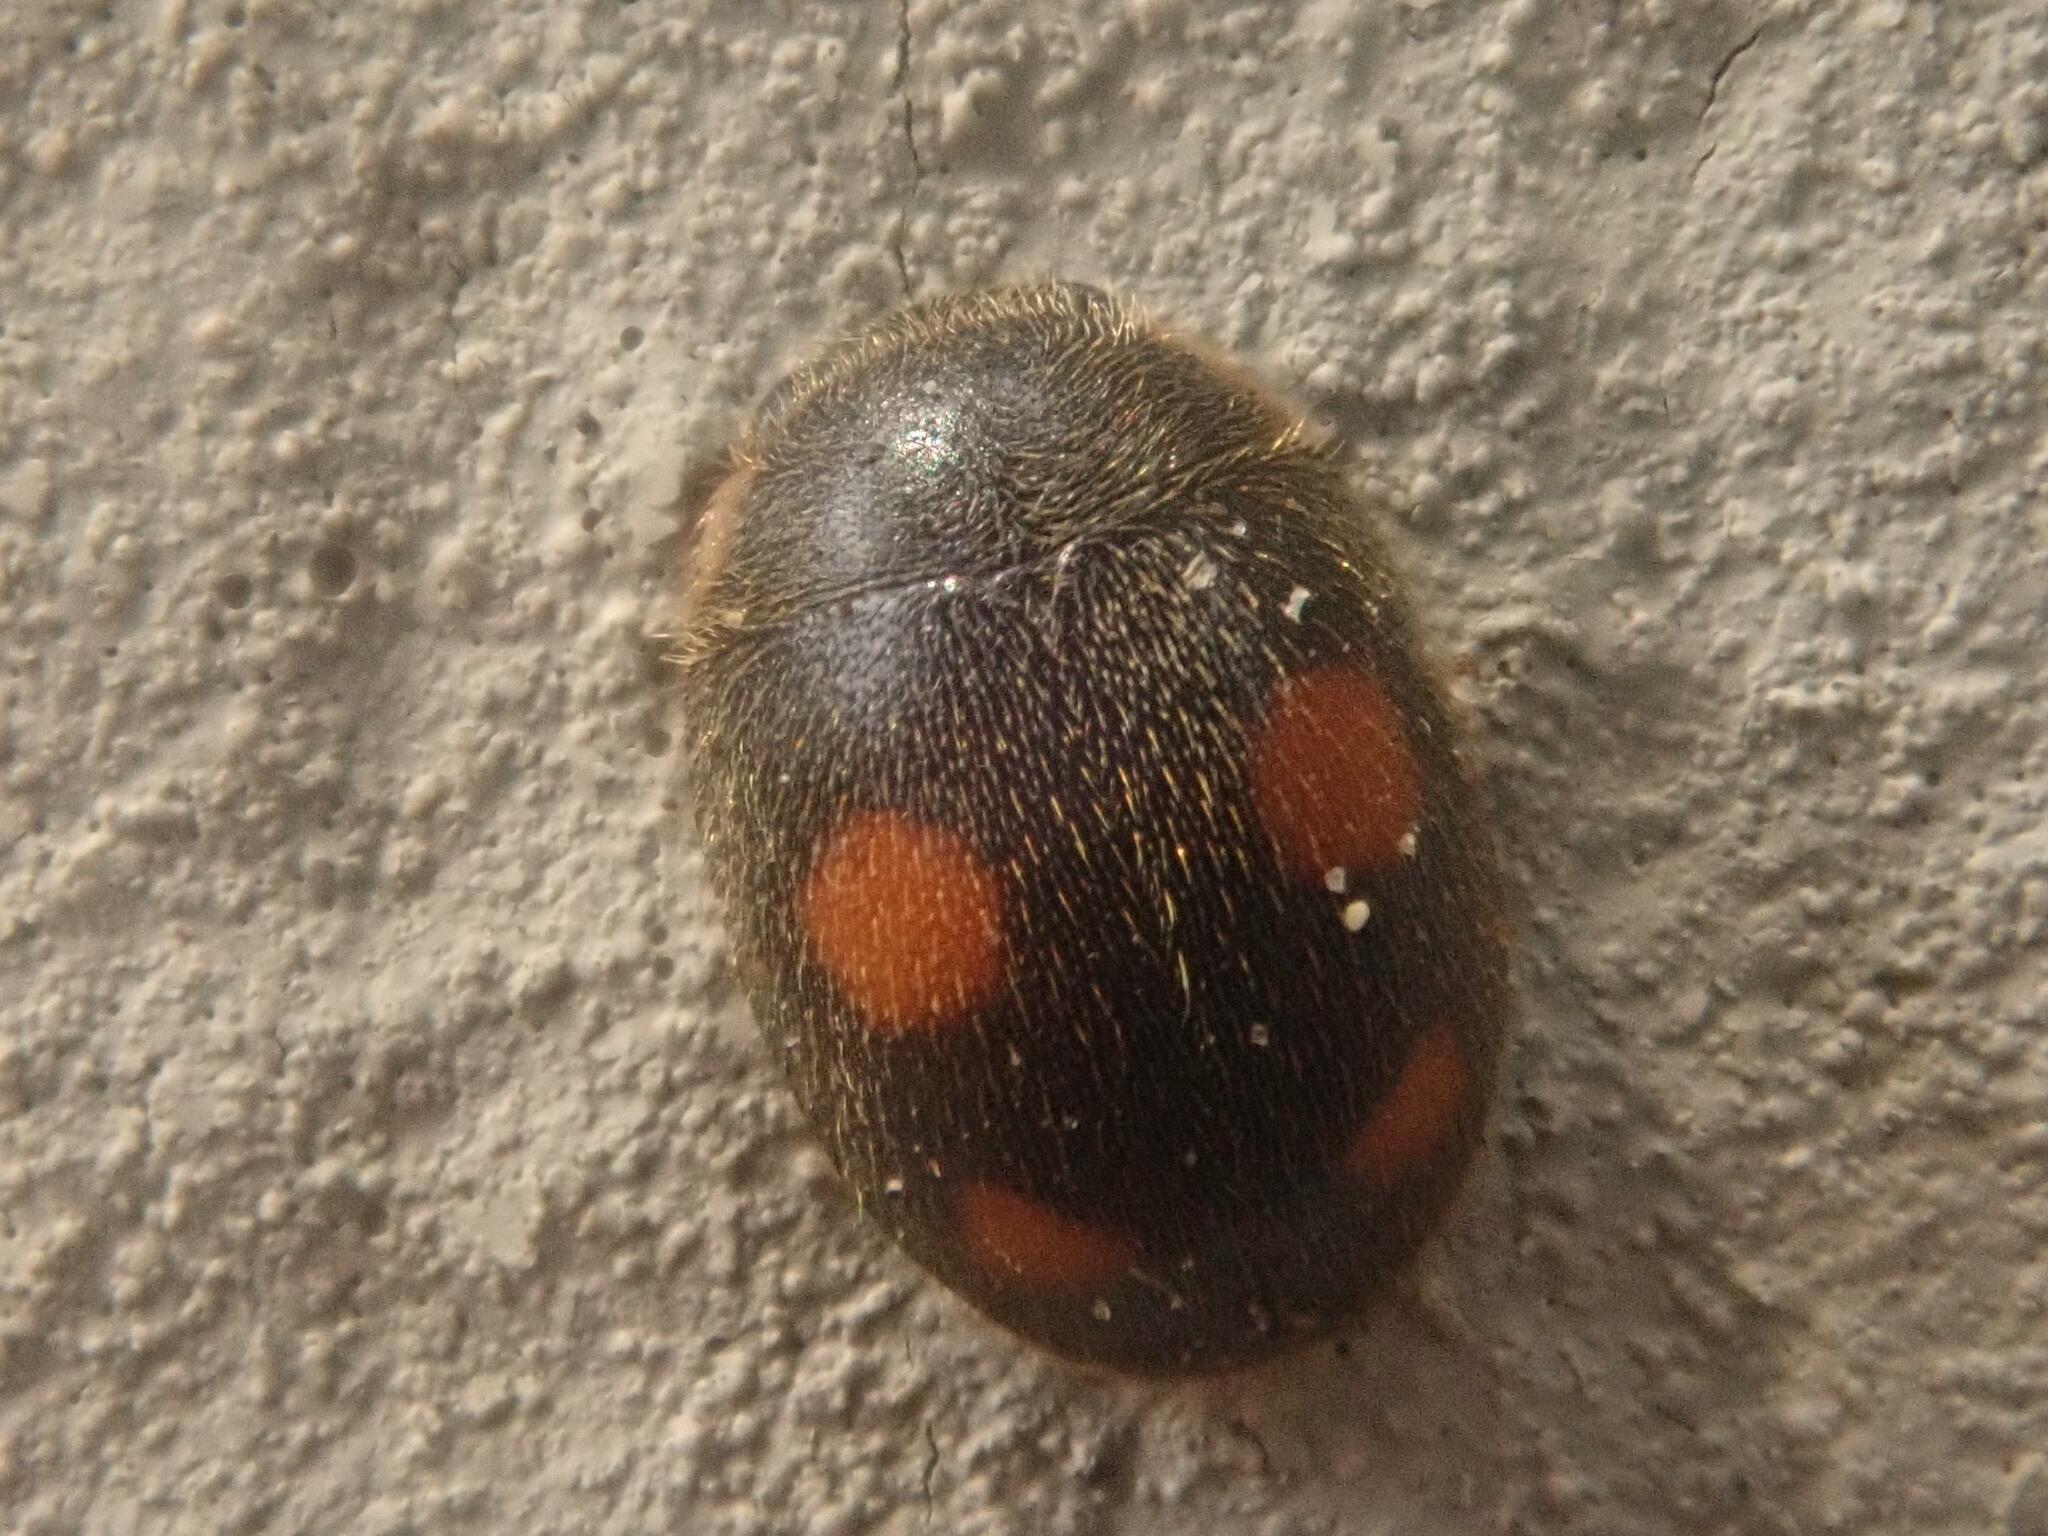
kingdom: Animalia
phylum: Arthropoda
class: Insecta
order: Coleoptera
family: Coccinellidae
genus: Platynaspis
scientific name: Platynaspis luteorubra
